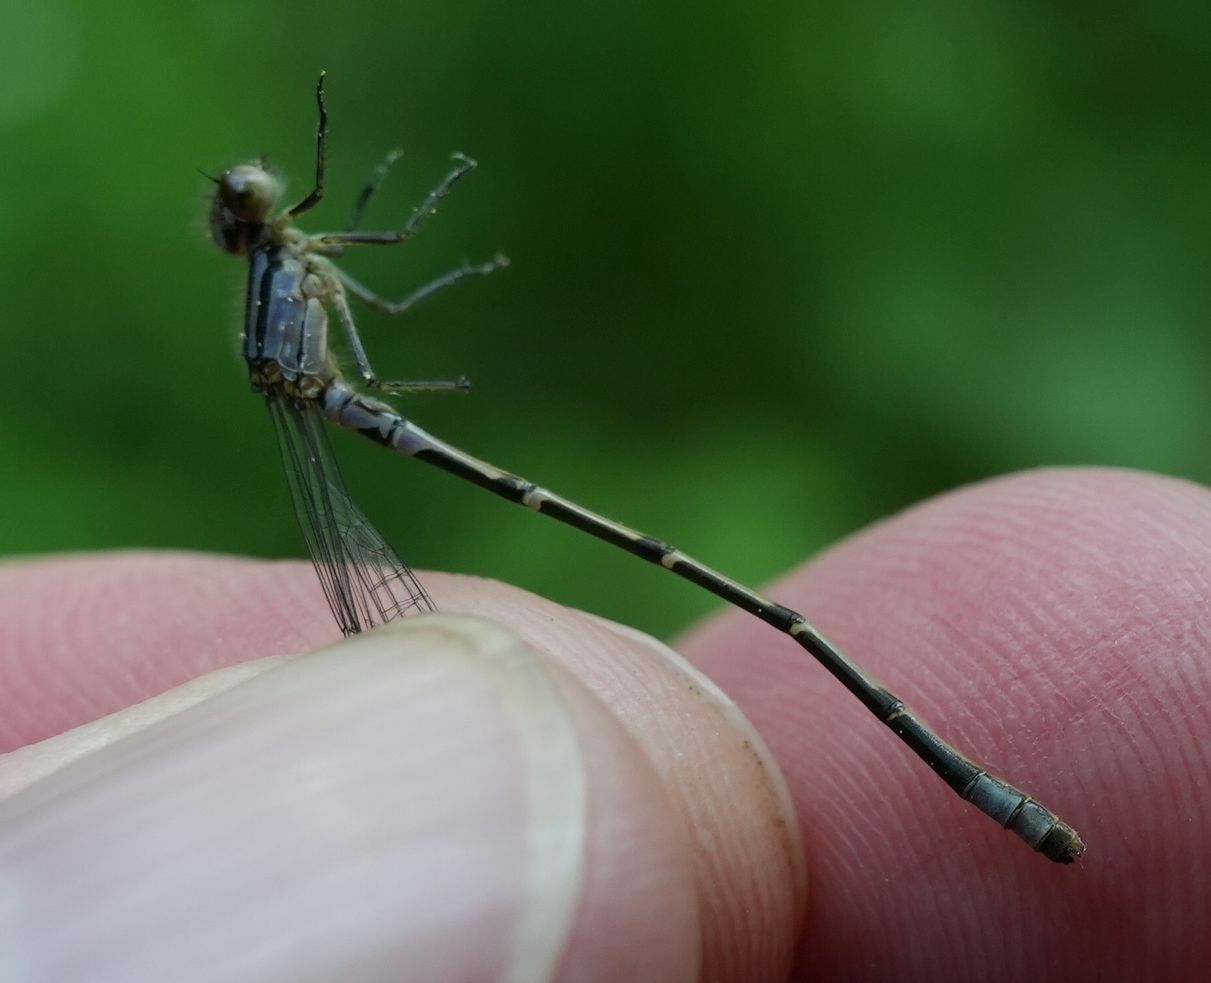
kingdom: Animalia
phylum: Arthropoda
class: Insecta
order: Odonata
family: Coenagrionidae
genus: Enallagma
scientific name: Enallagma geminatum
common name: Skimming bluet
